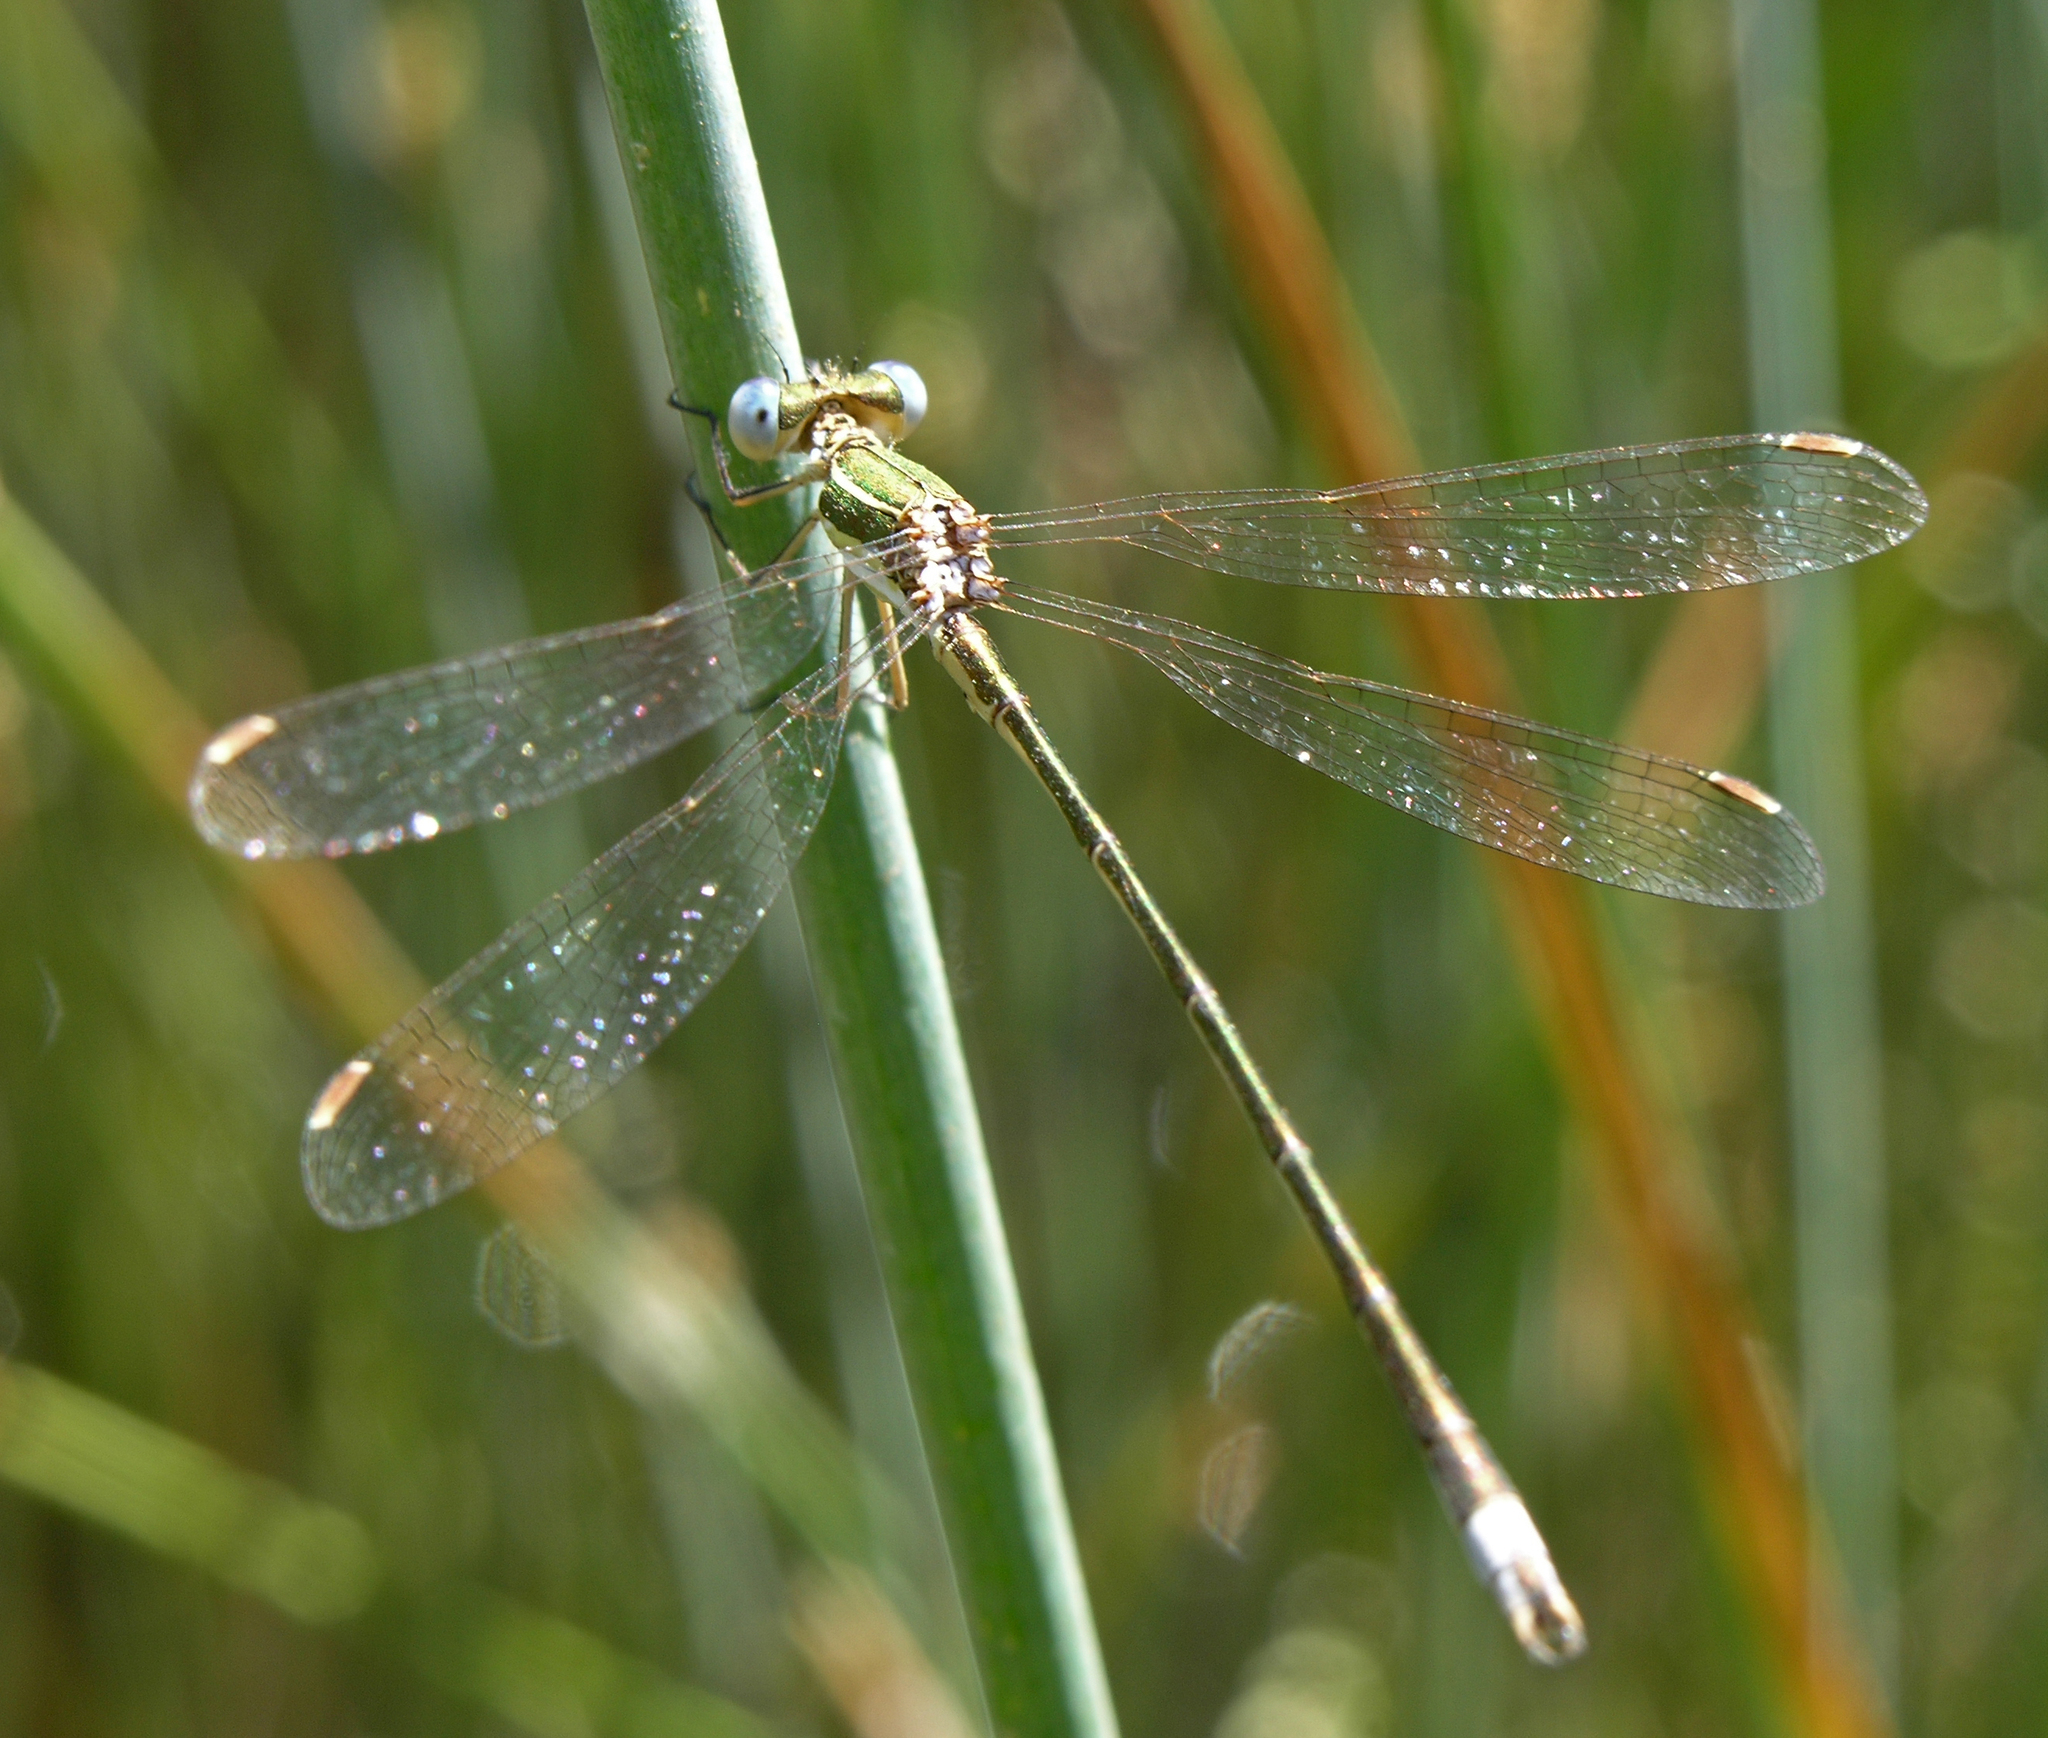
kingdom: Animalia
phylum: Arthropoda
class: Insecta
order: Odonata
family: Lestidae
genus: Lestes
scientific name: Lestes virens
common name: Small emerald spreadwing
